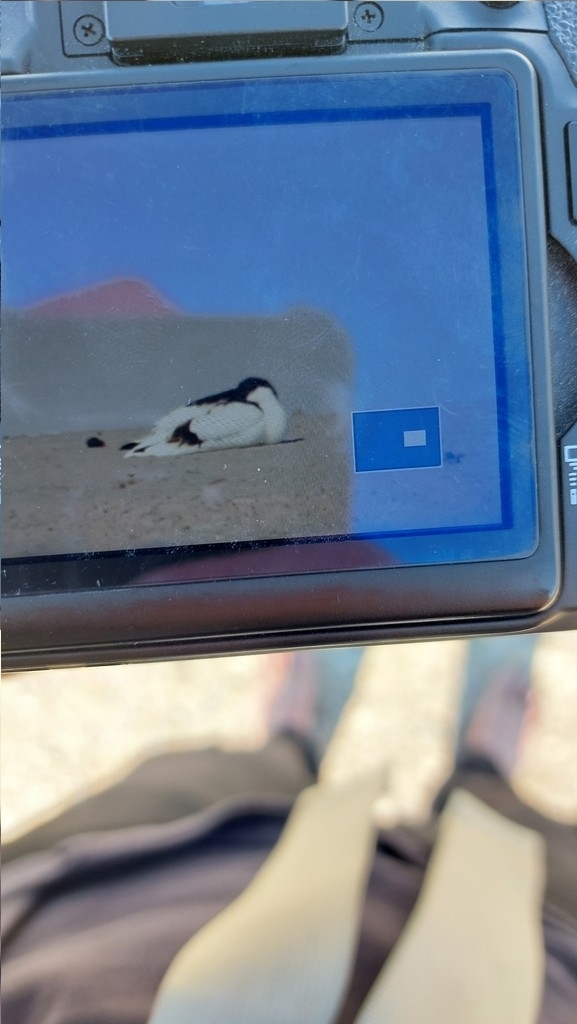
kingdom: Animalia
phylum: Chordata
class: Aves
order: Charadriiformes
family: Recurvirostridae
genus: Recurvirostra
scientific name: Recurvirostra avosetta
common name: Pied avocet
